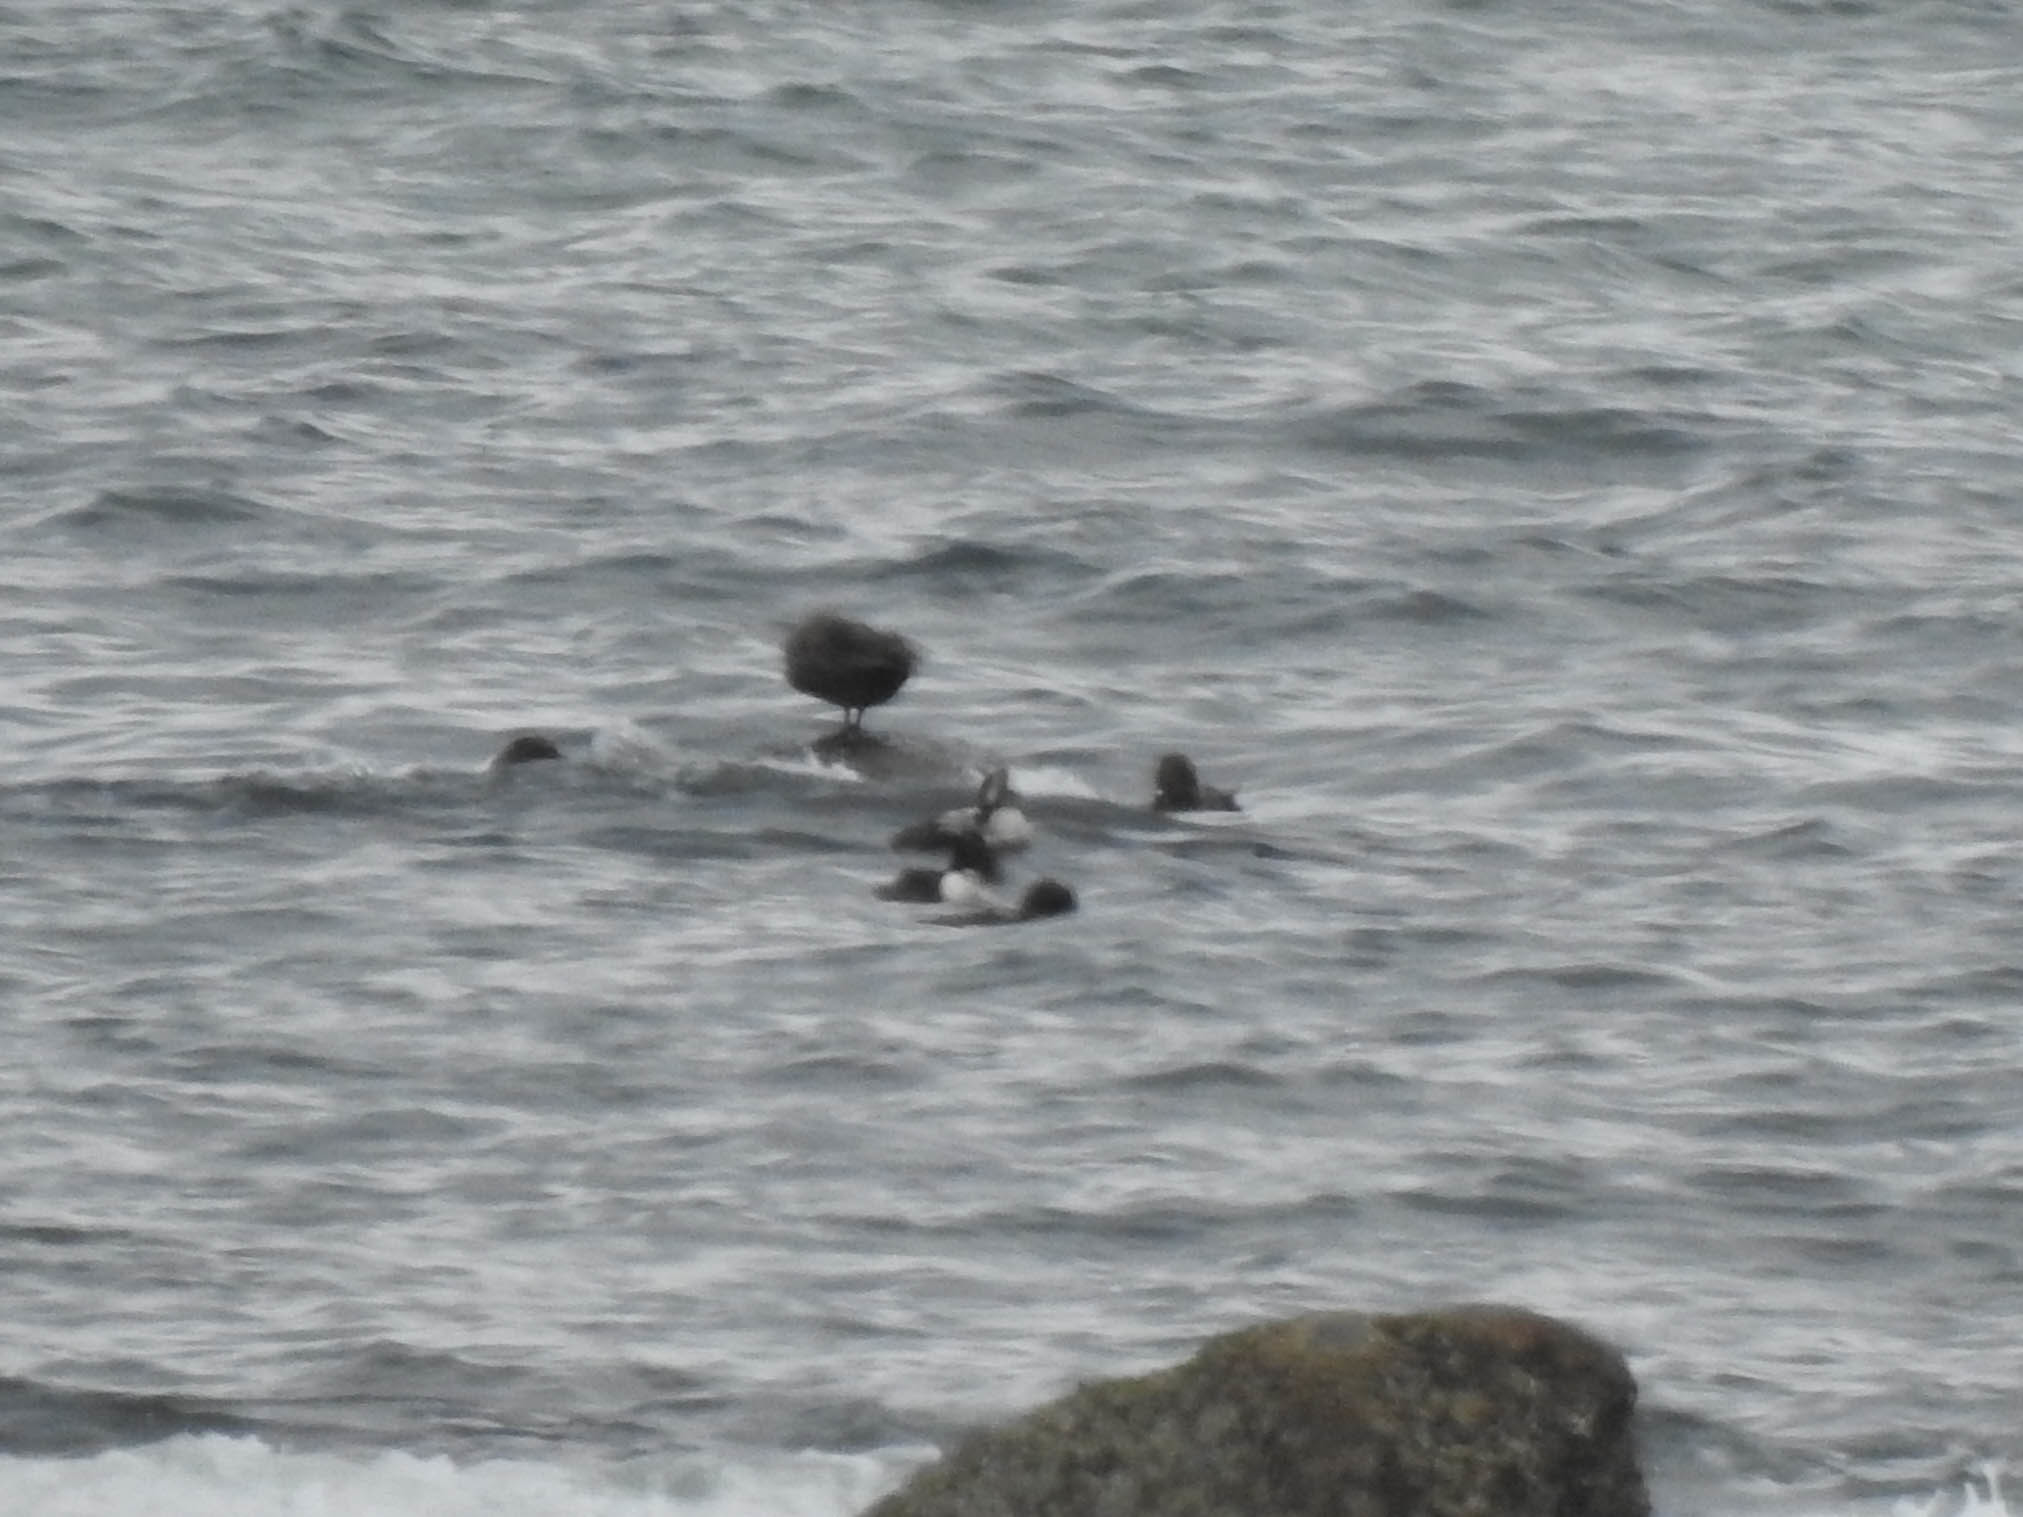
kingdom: Animalia
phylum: Chordata
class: Aves
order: Anseriformes
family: Anatidae
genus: Somateria
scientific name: Somateria mollissima
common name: Common eider
